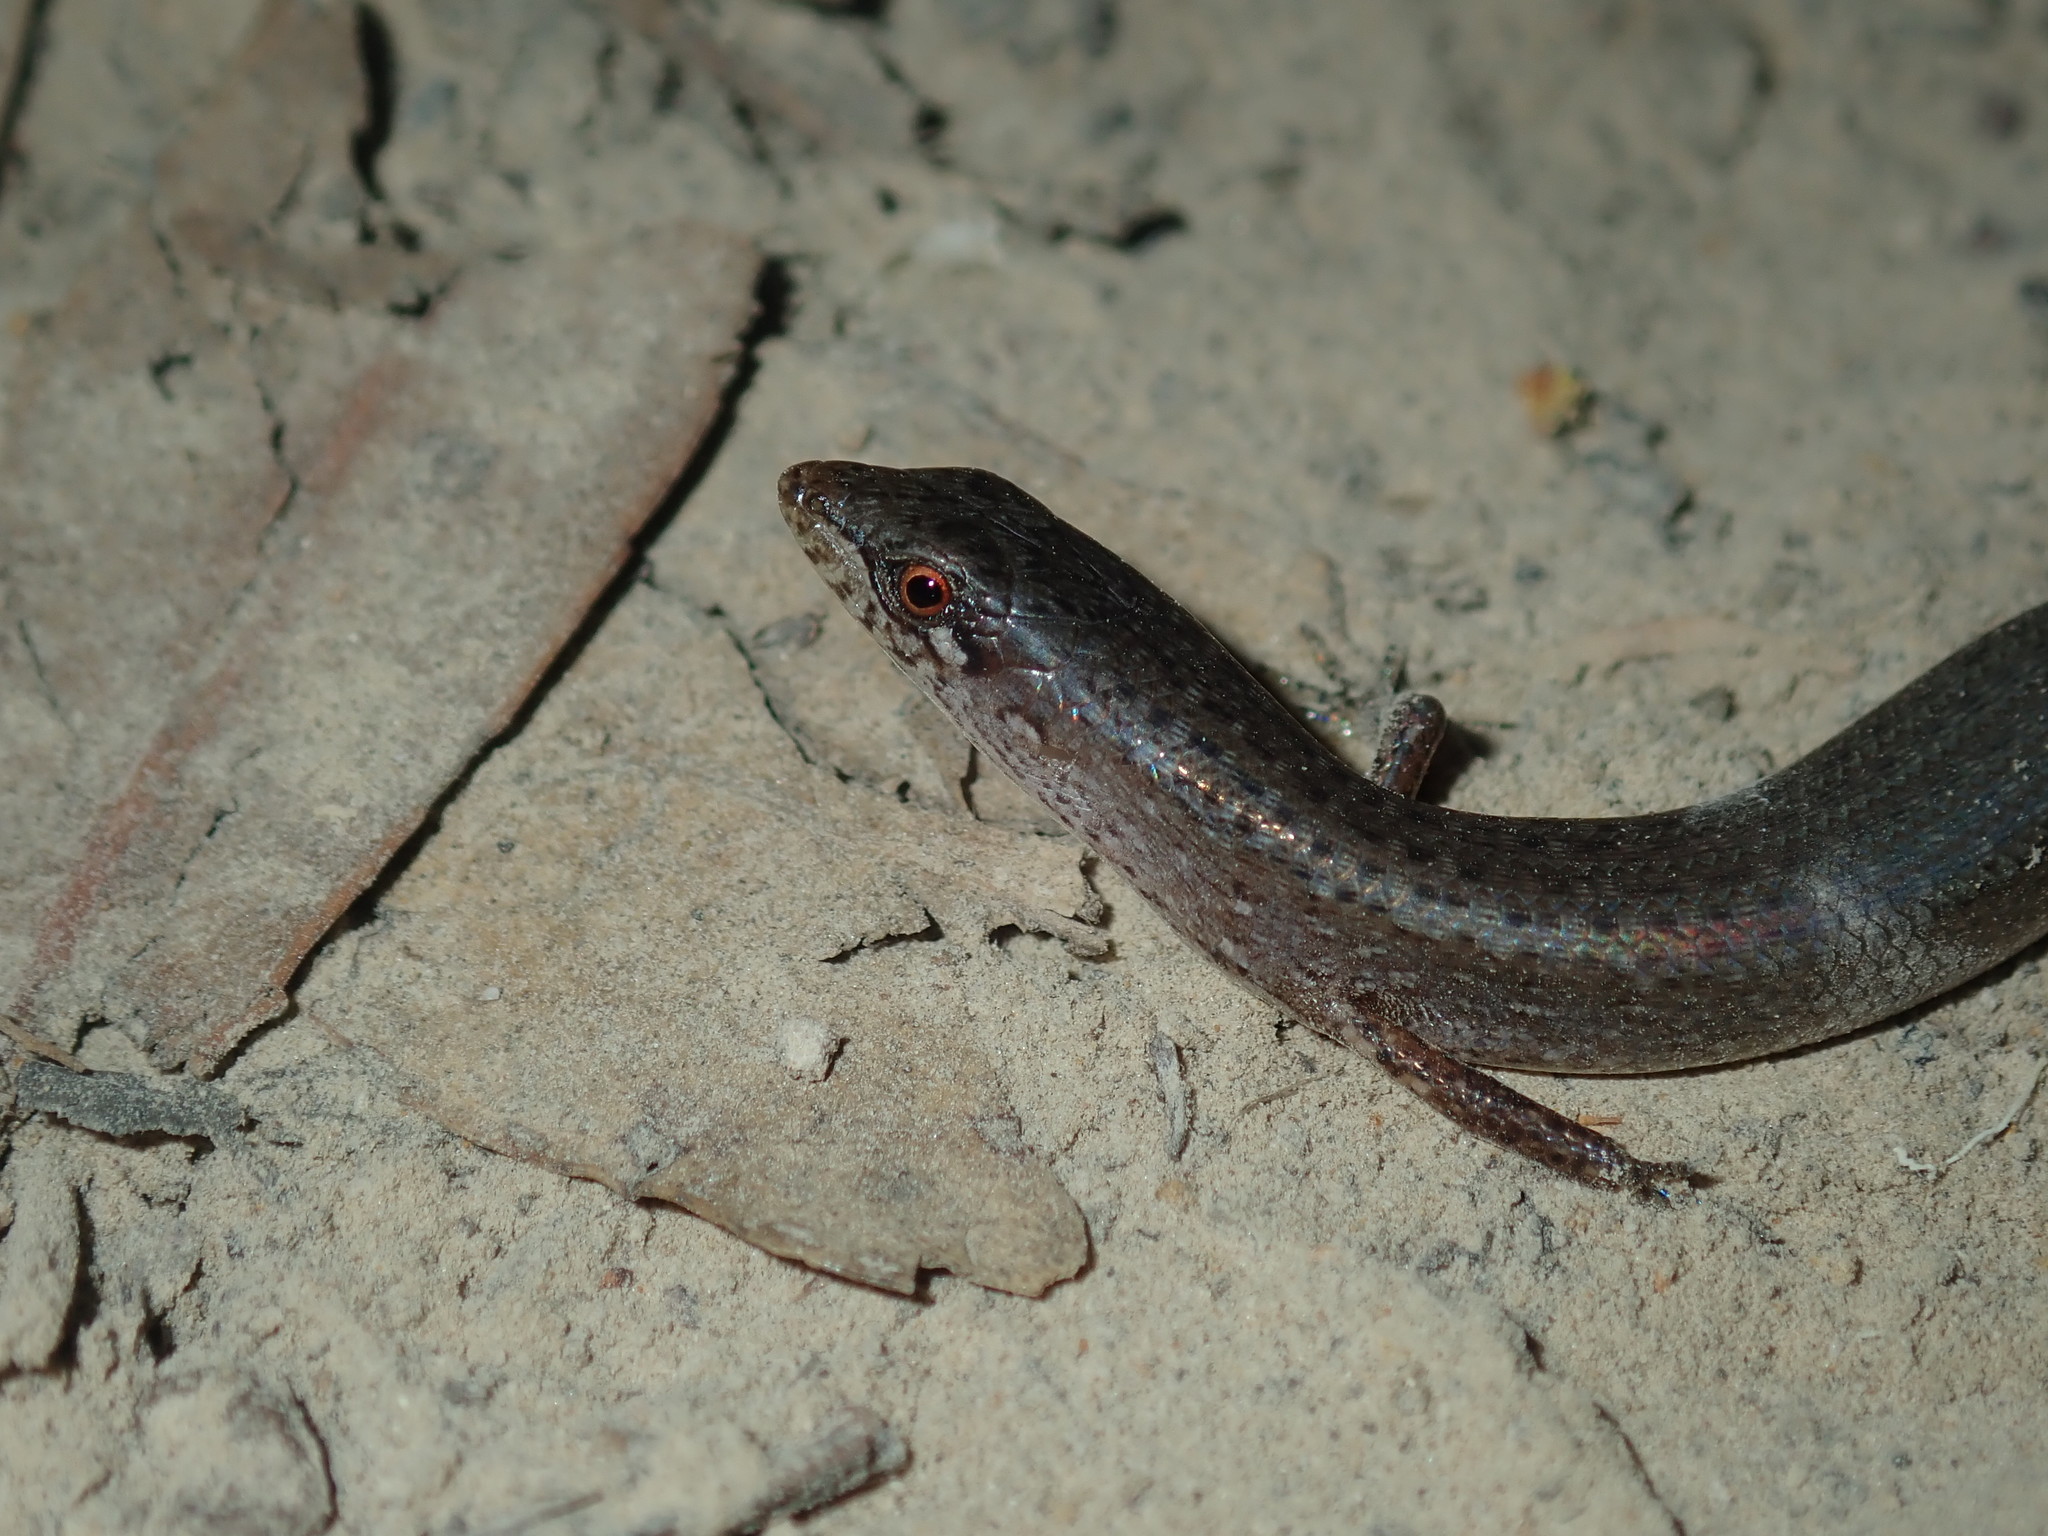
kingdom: Animalia
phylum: Chordata
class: Squamata
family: Scincidae
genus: Saproscincus
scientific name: Saproscincus mustelinus
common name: Southern weasel skink
